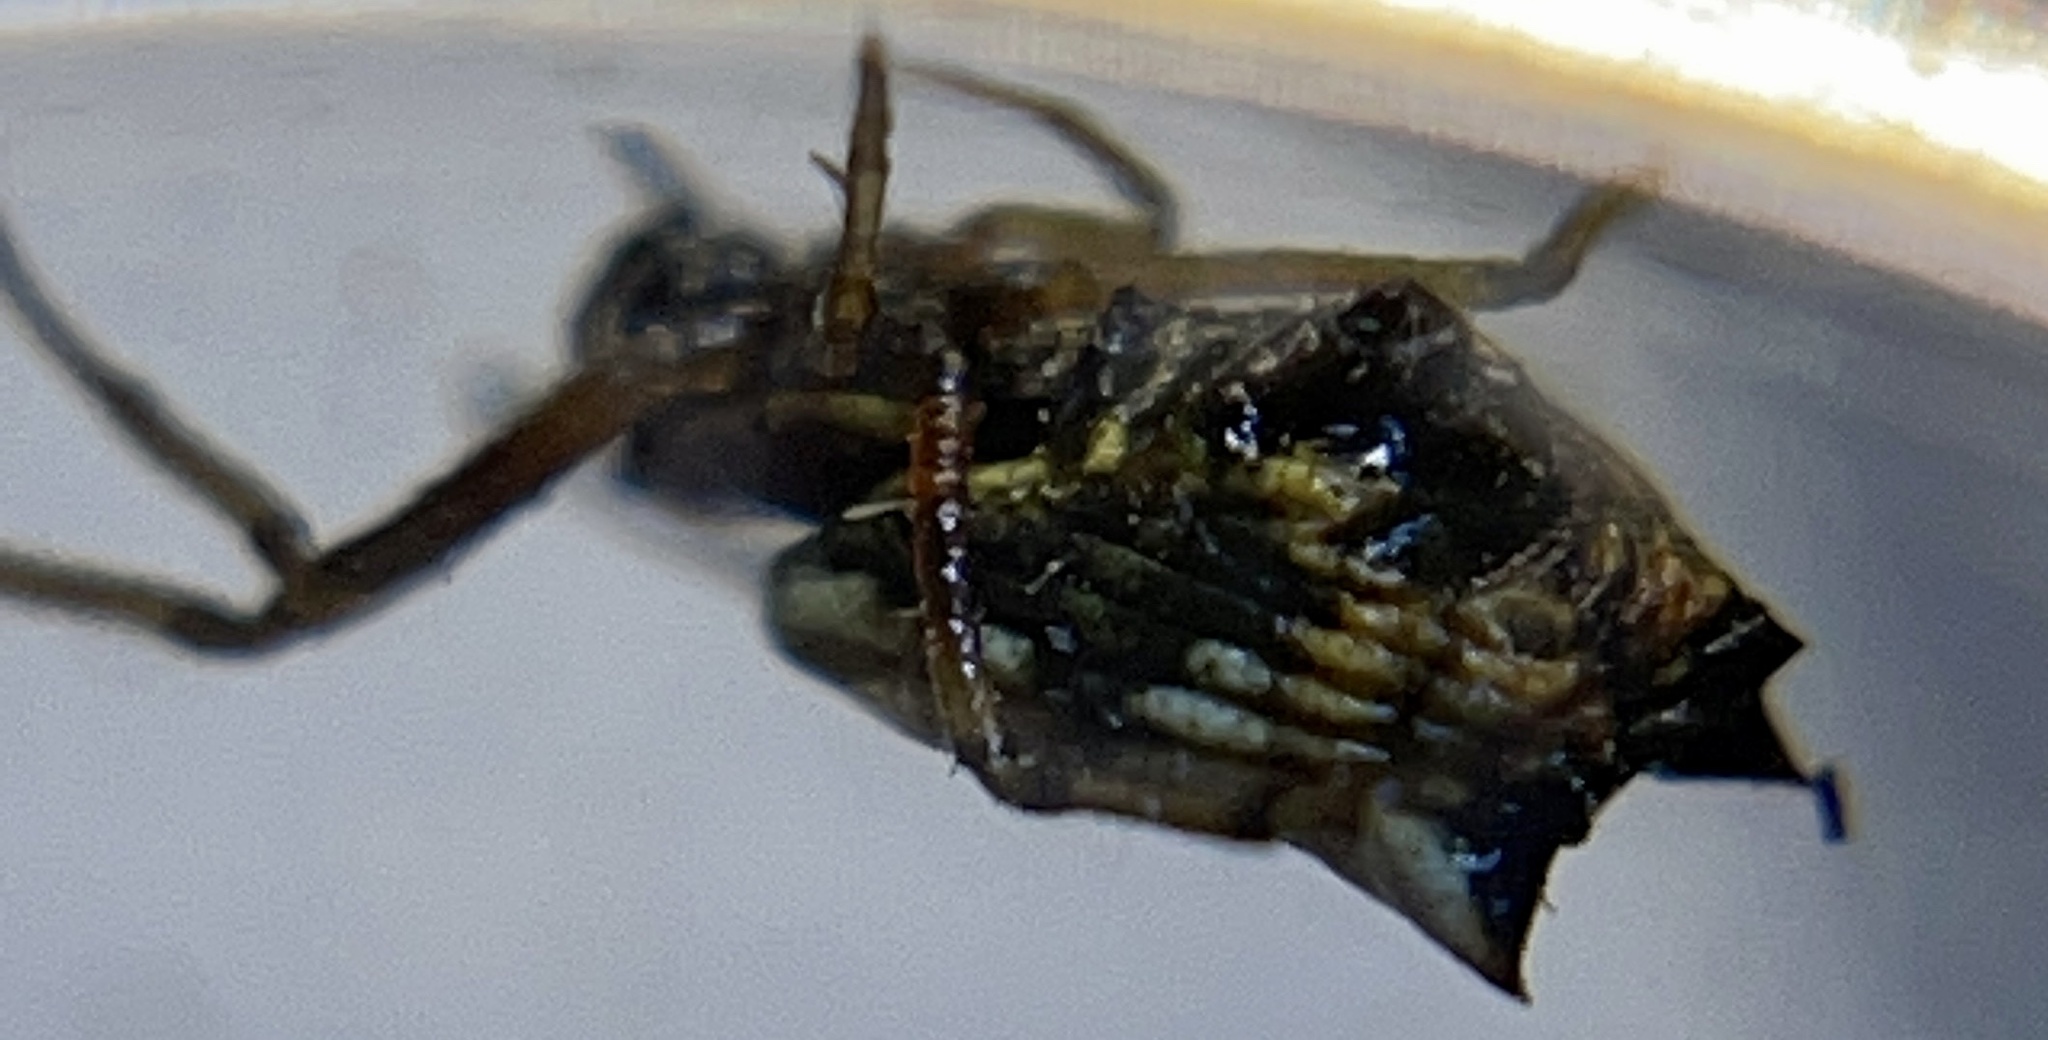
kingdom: Animalia
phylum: Arthropoda
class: Arachnida
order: Araneae
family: Araneidae
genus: Micrathena
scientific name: Micrathena mitrata
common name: Orb weavers
